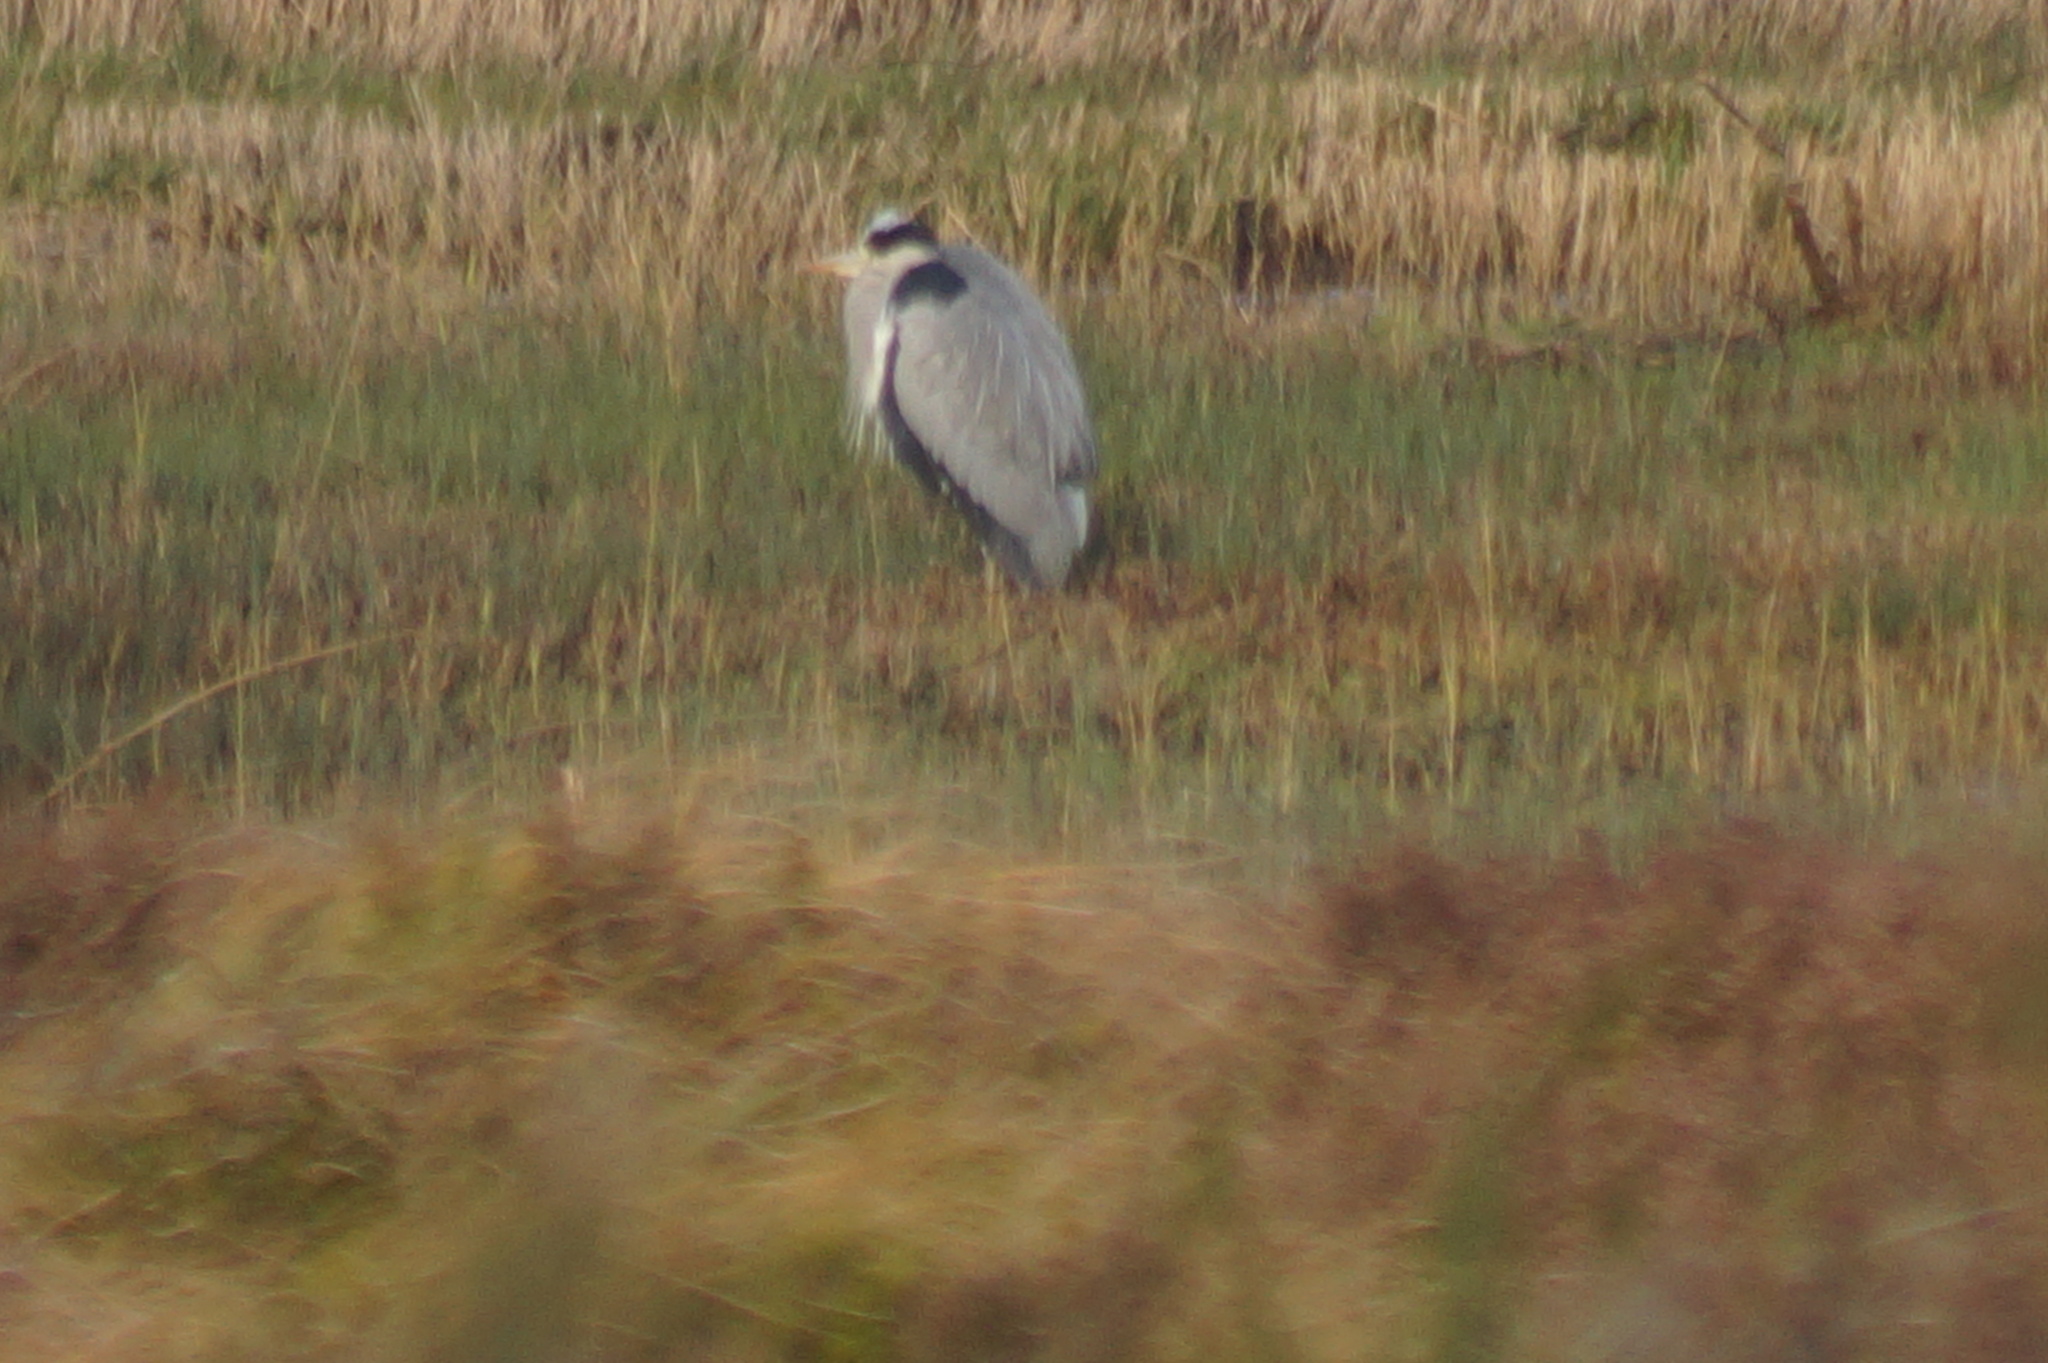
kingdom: Animalia
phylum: Chordata
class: Aves
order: Pelecaniformes
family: Ardeidae
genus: Ardea
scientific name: Ardea cinerea
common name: Grey heron
